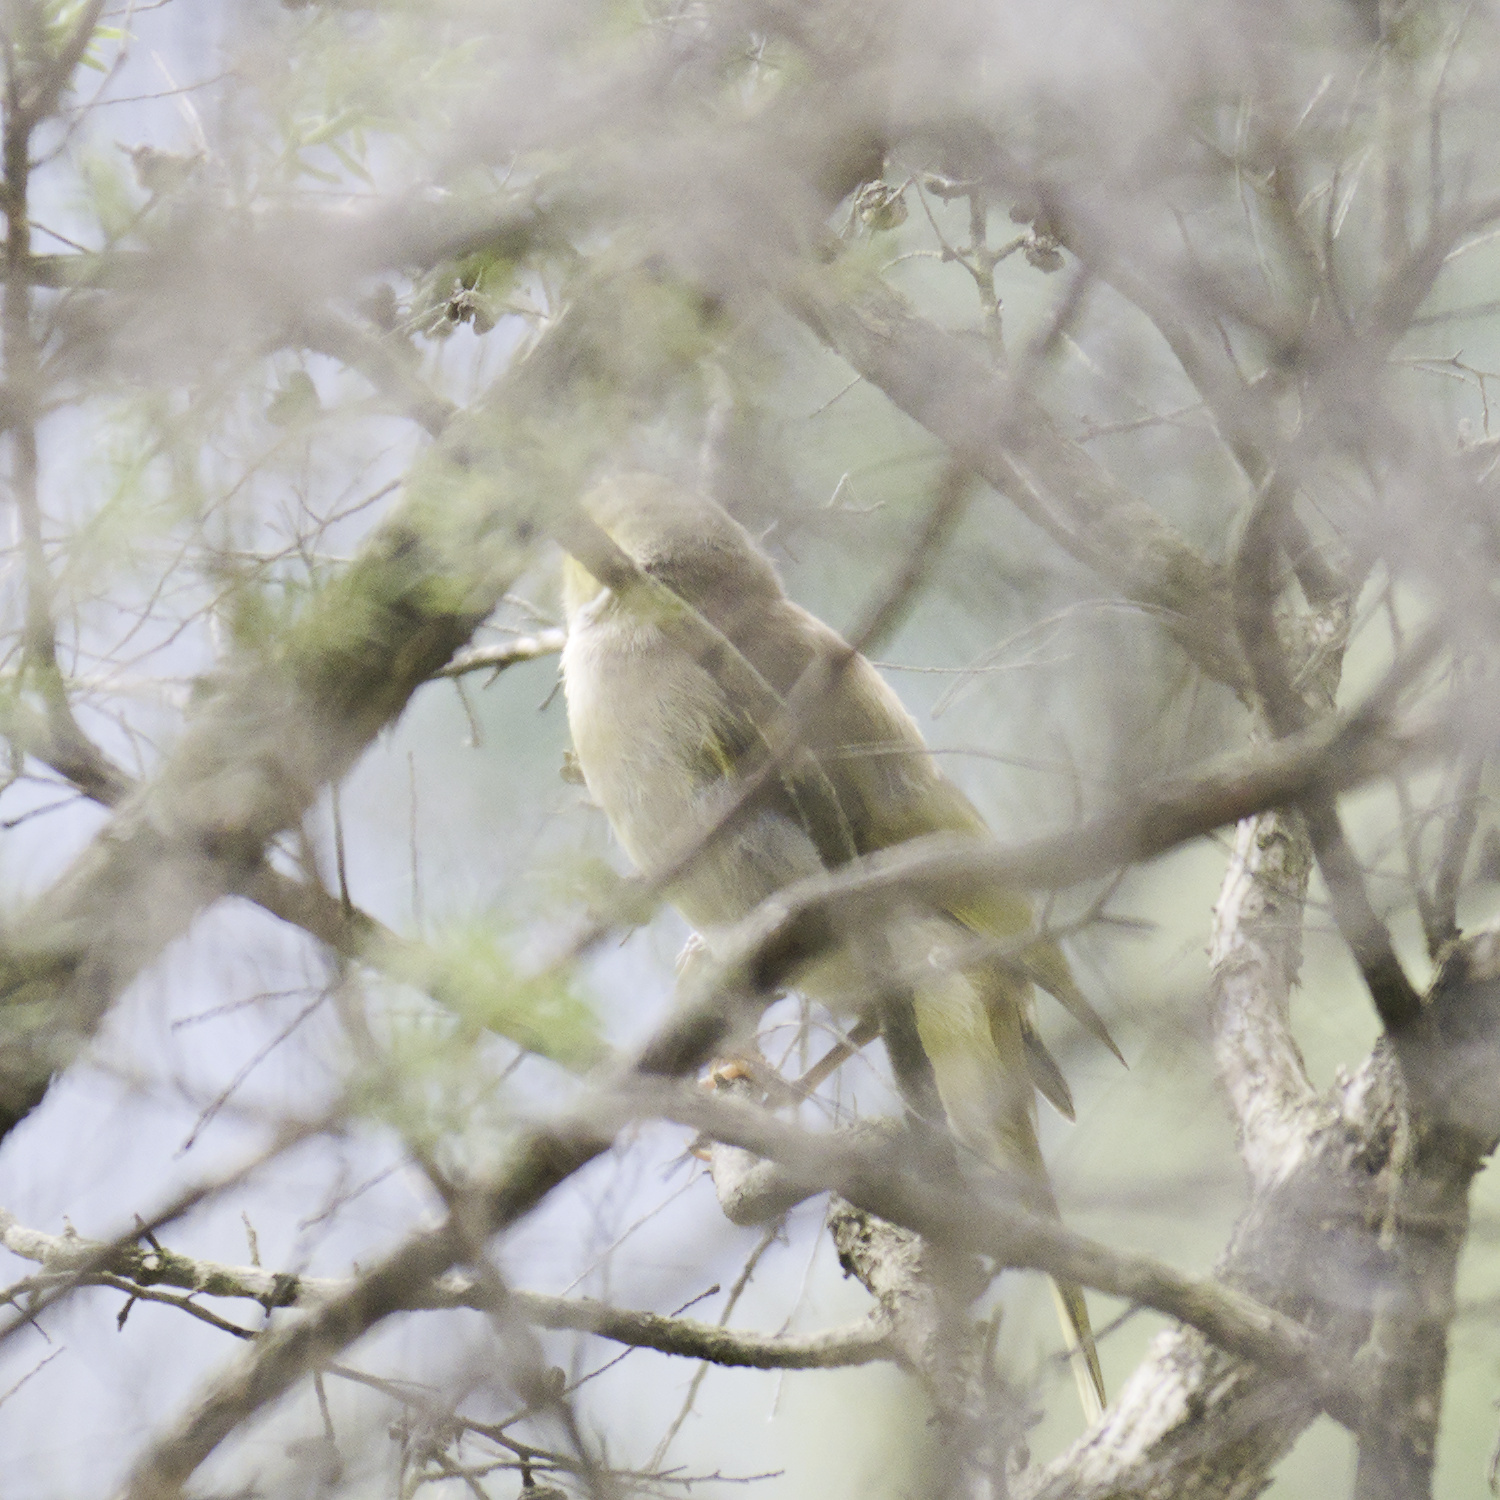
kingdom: Animalia
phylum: Chordata
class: Aves
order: Passeriformes
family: Meliphagidae
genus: Ptilotula
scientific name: Ptilotula penicillata
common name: White-plumed honeyeater
